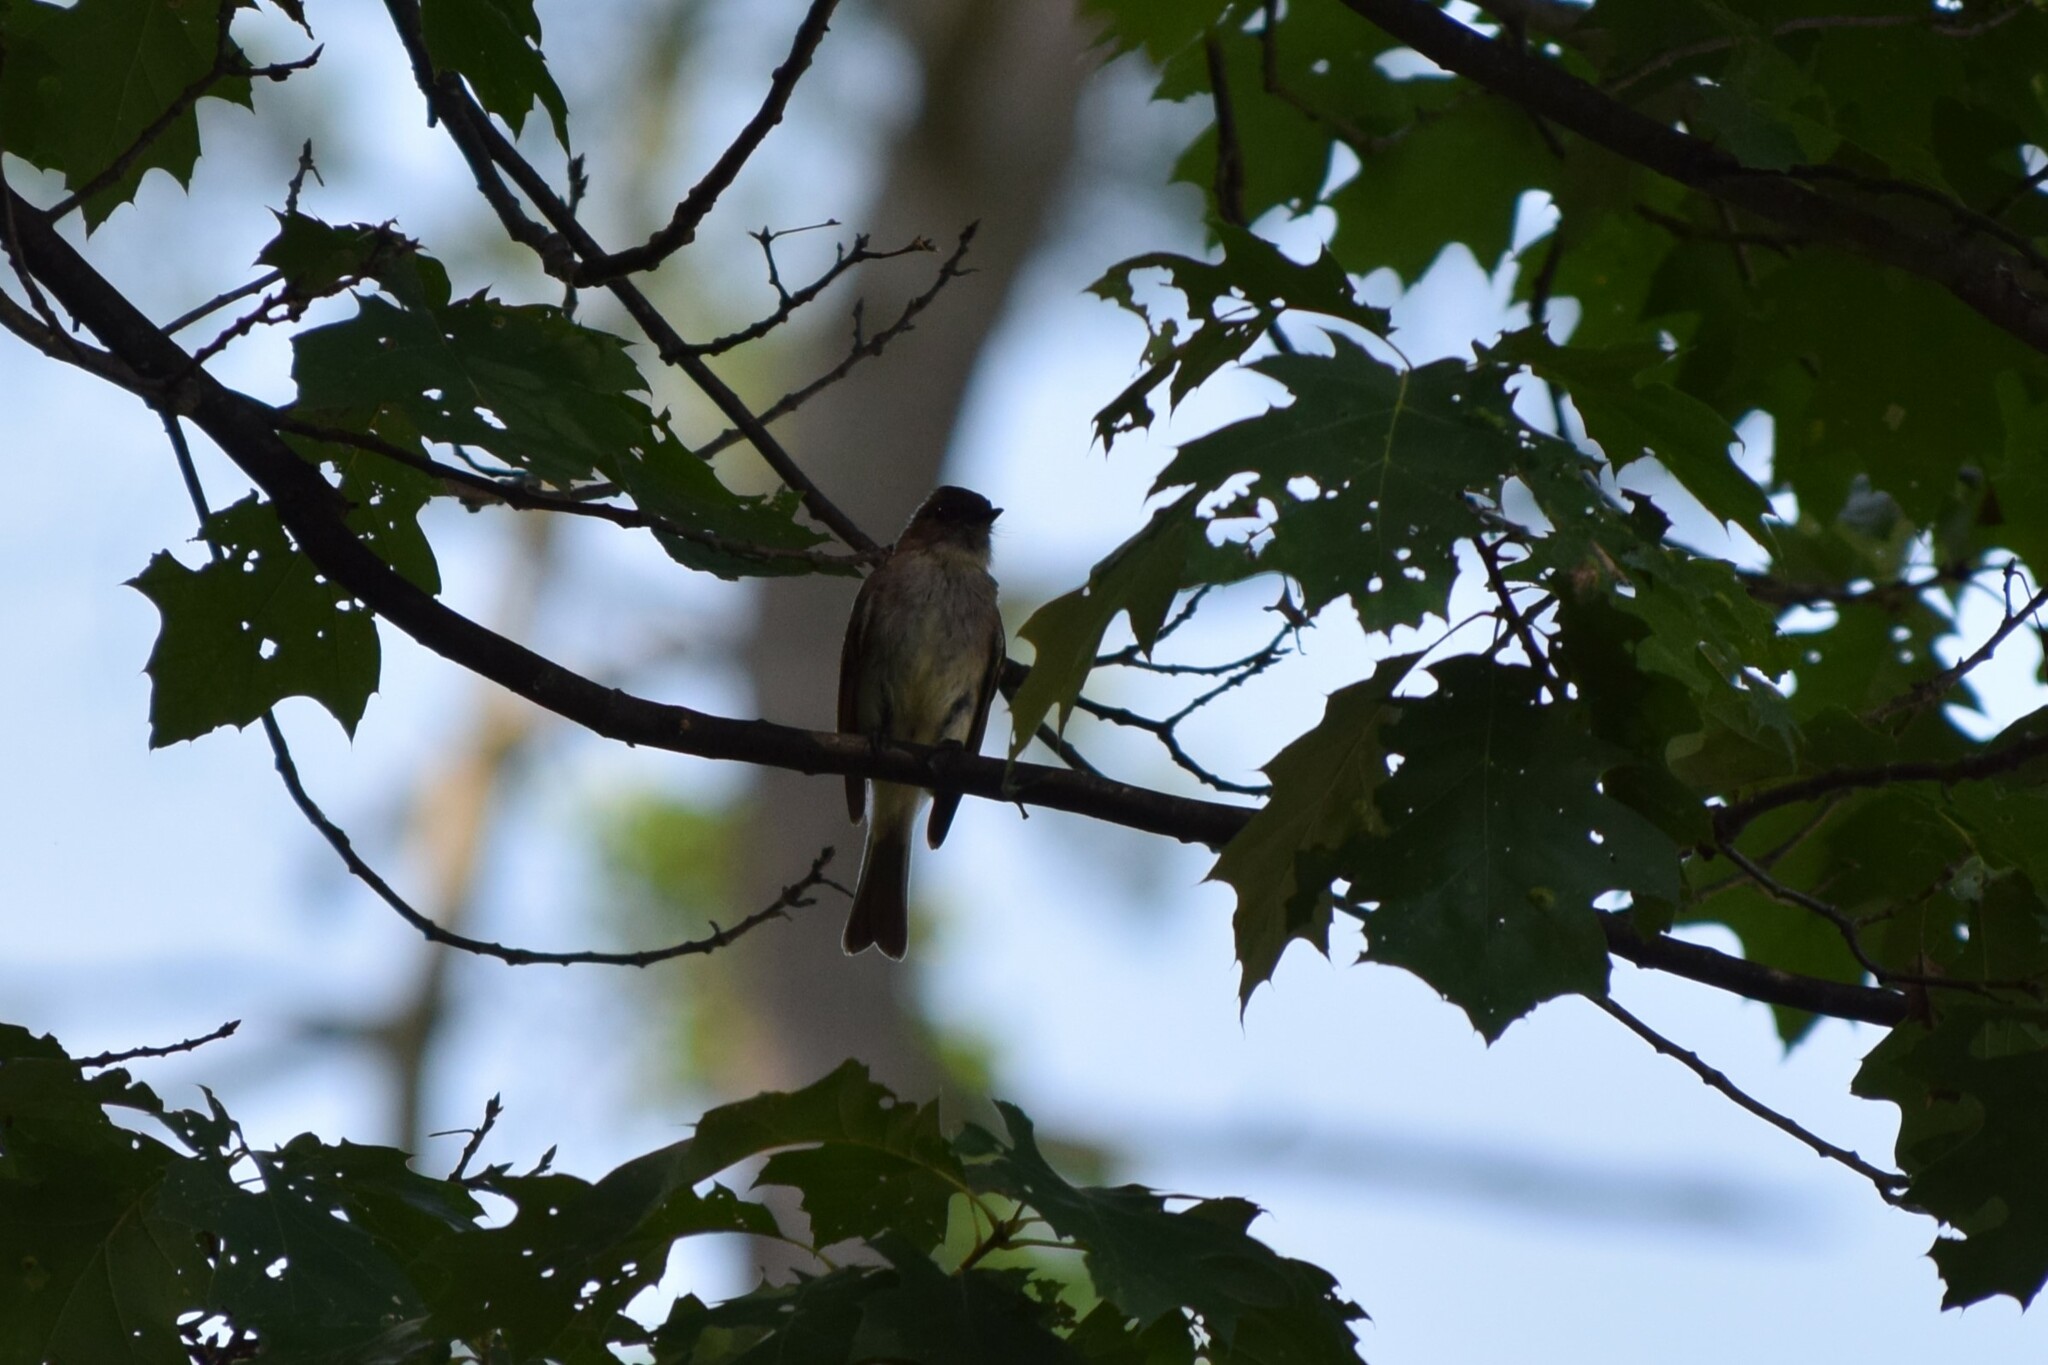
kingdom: Animalia
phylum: Chordata
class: Aves
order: Passeriformes
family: Tyrannidae
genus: Sayornis
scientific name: Sayornis phoebe
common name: Eastern phoebe
